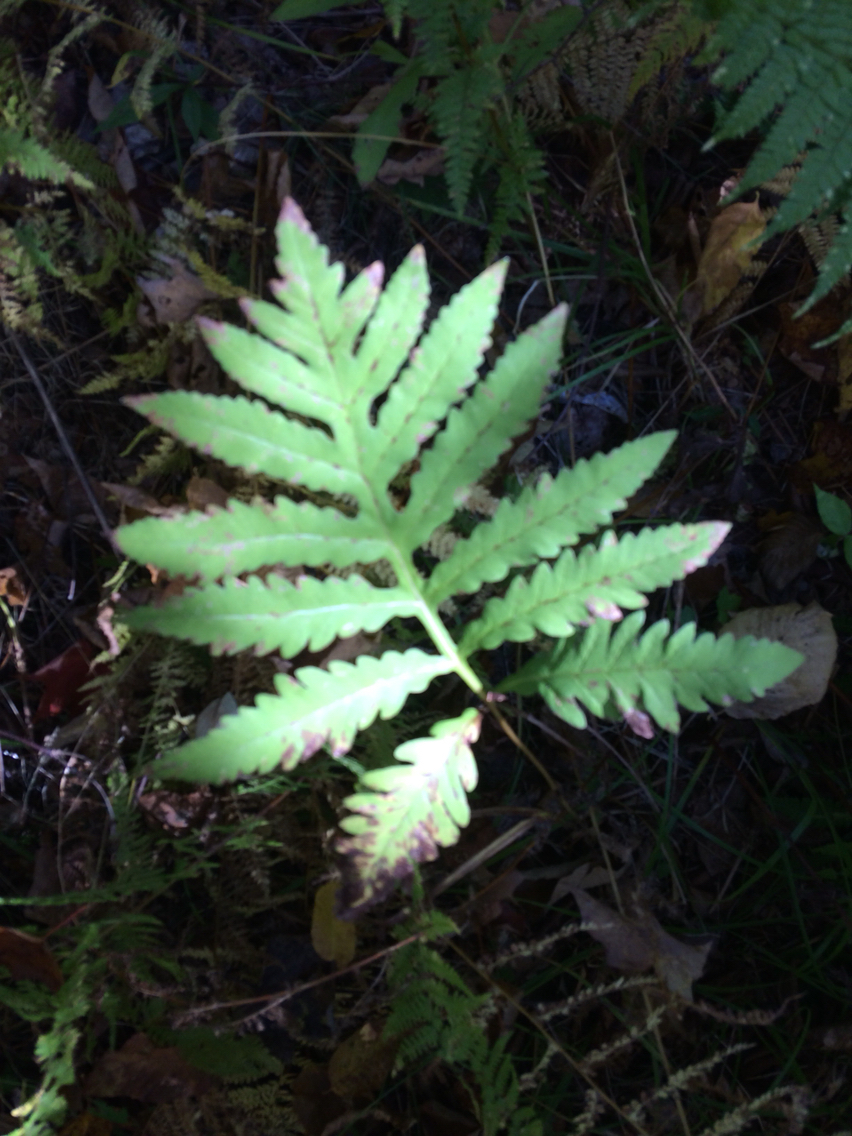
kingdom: Plantae
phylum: Tracheophyta
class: Polypodiopsida
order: Polypodiales
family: Onocleaceae
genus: Onoclea
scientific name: Onoclea sensibilis
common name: Sensitive fern
